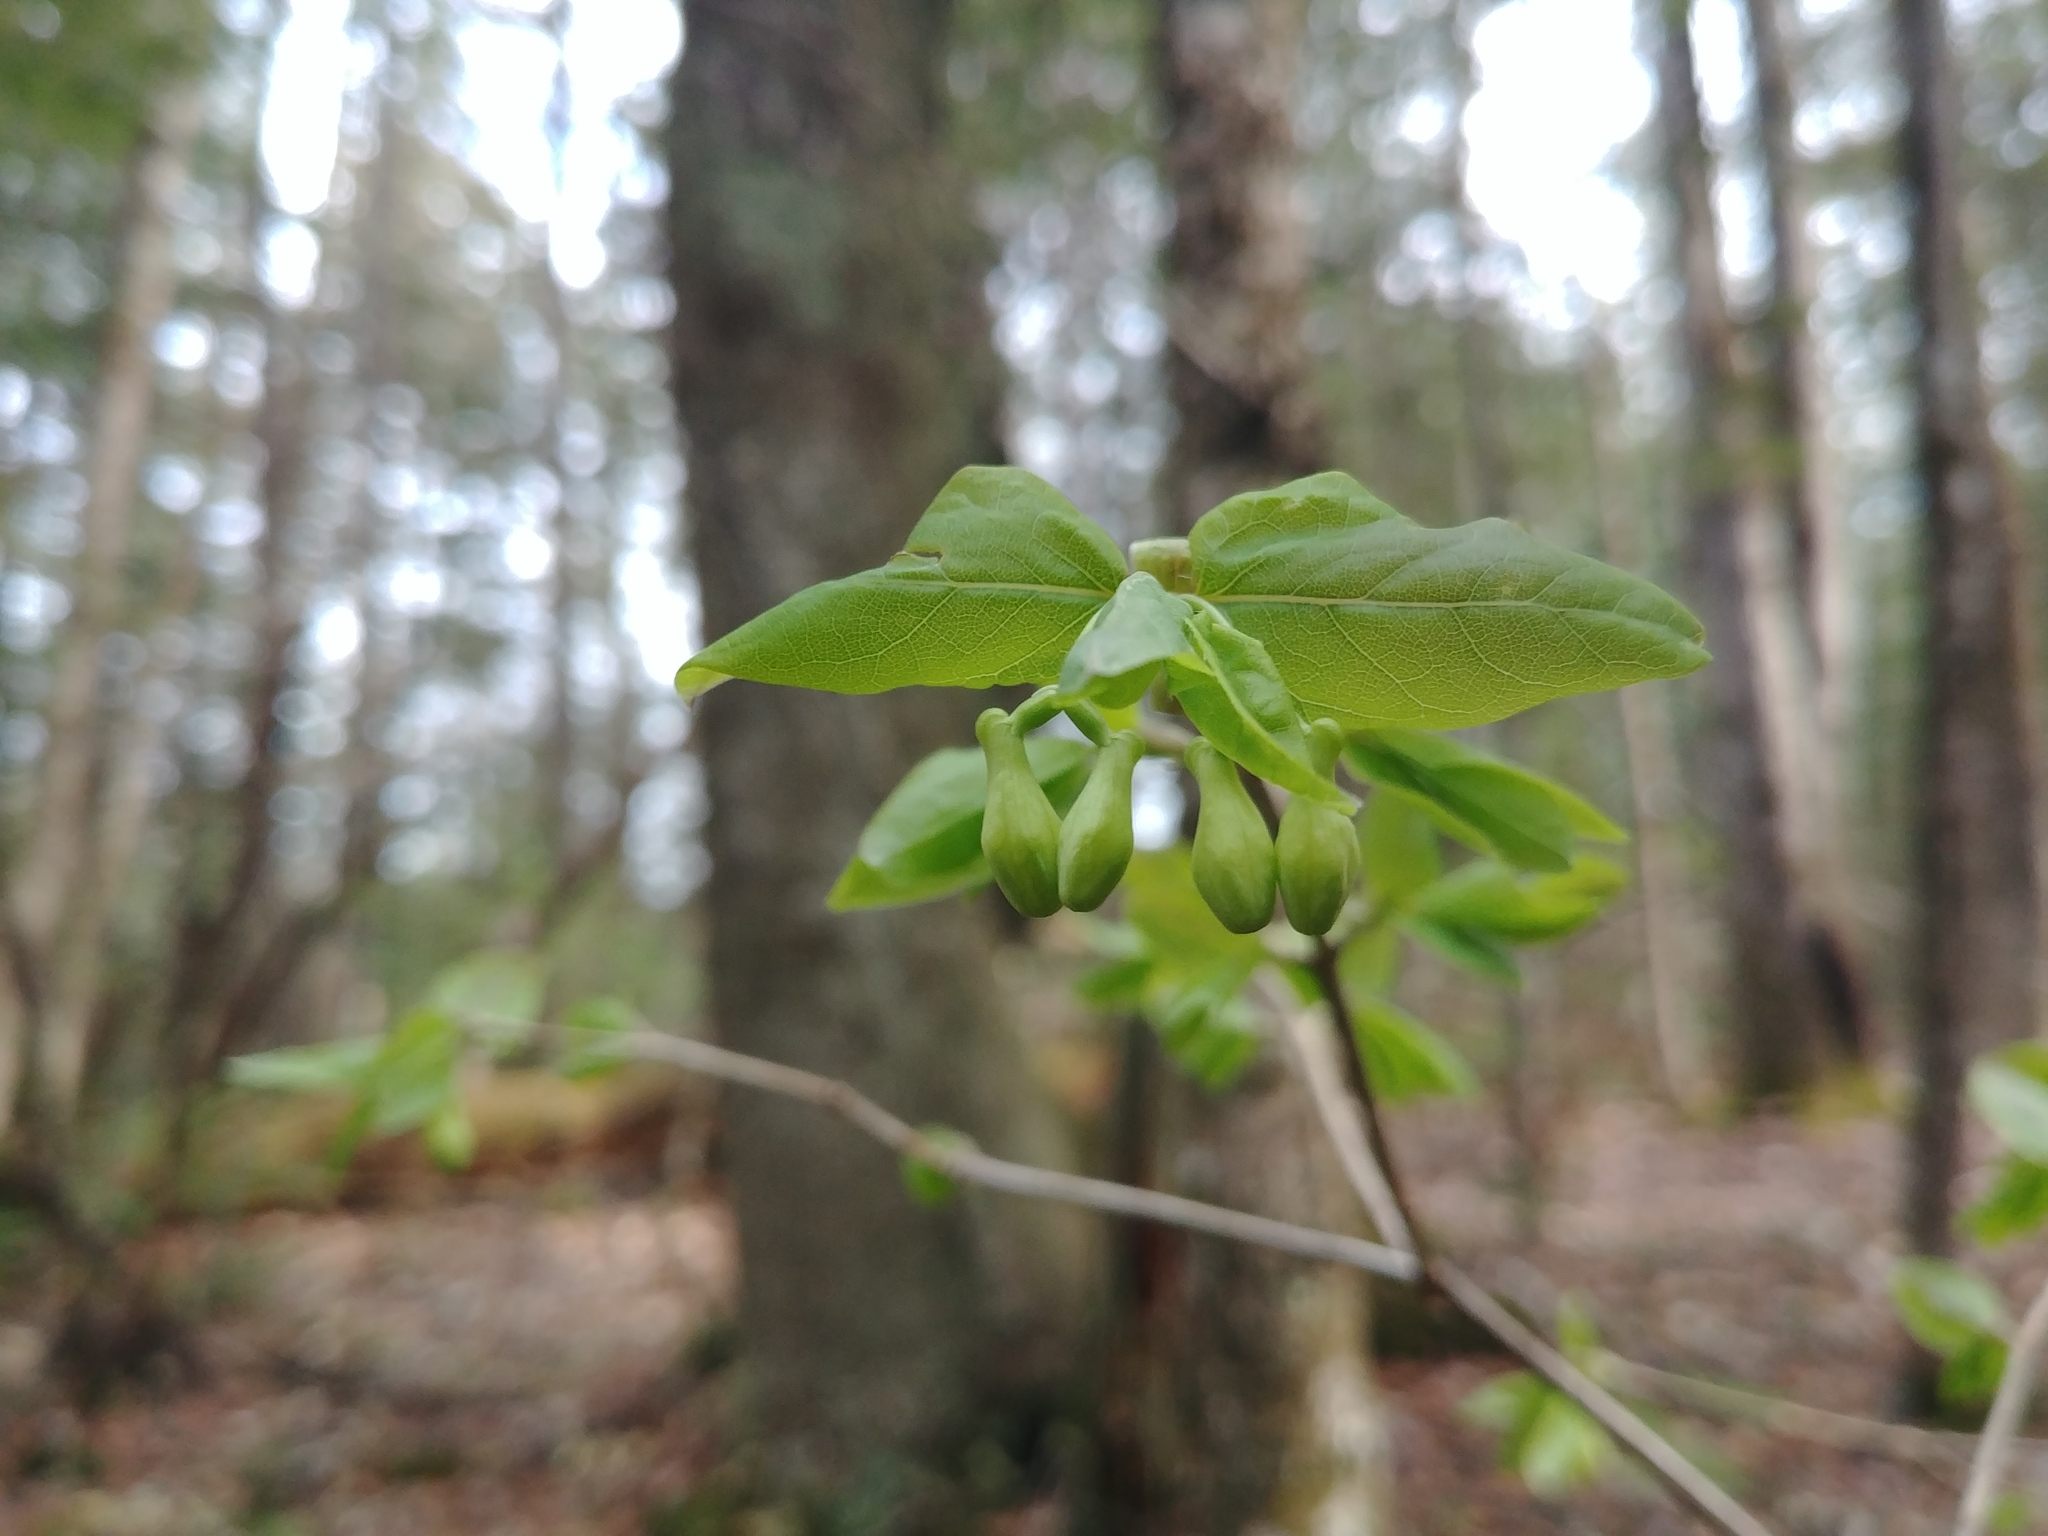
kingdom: Plantae
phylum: Tracheophyta
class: Magnoliopsida
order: Dipsacales
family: Caprifoliaceae
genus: Lonicera
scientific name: Lonicera canadensis
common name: American fly-honeysuckle
